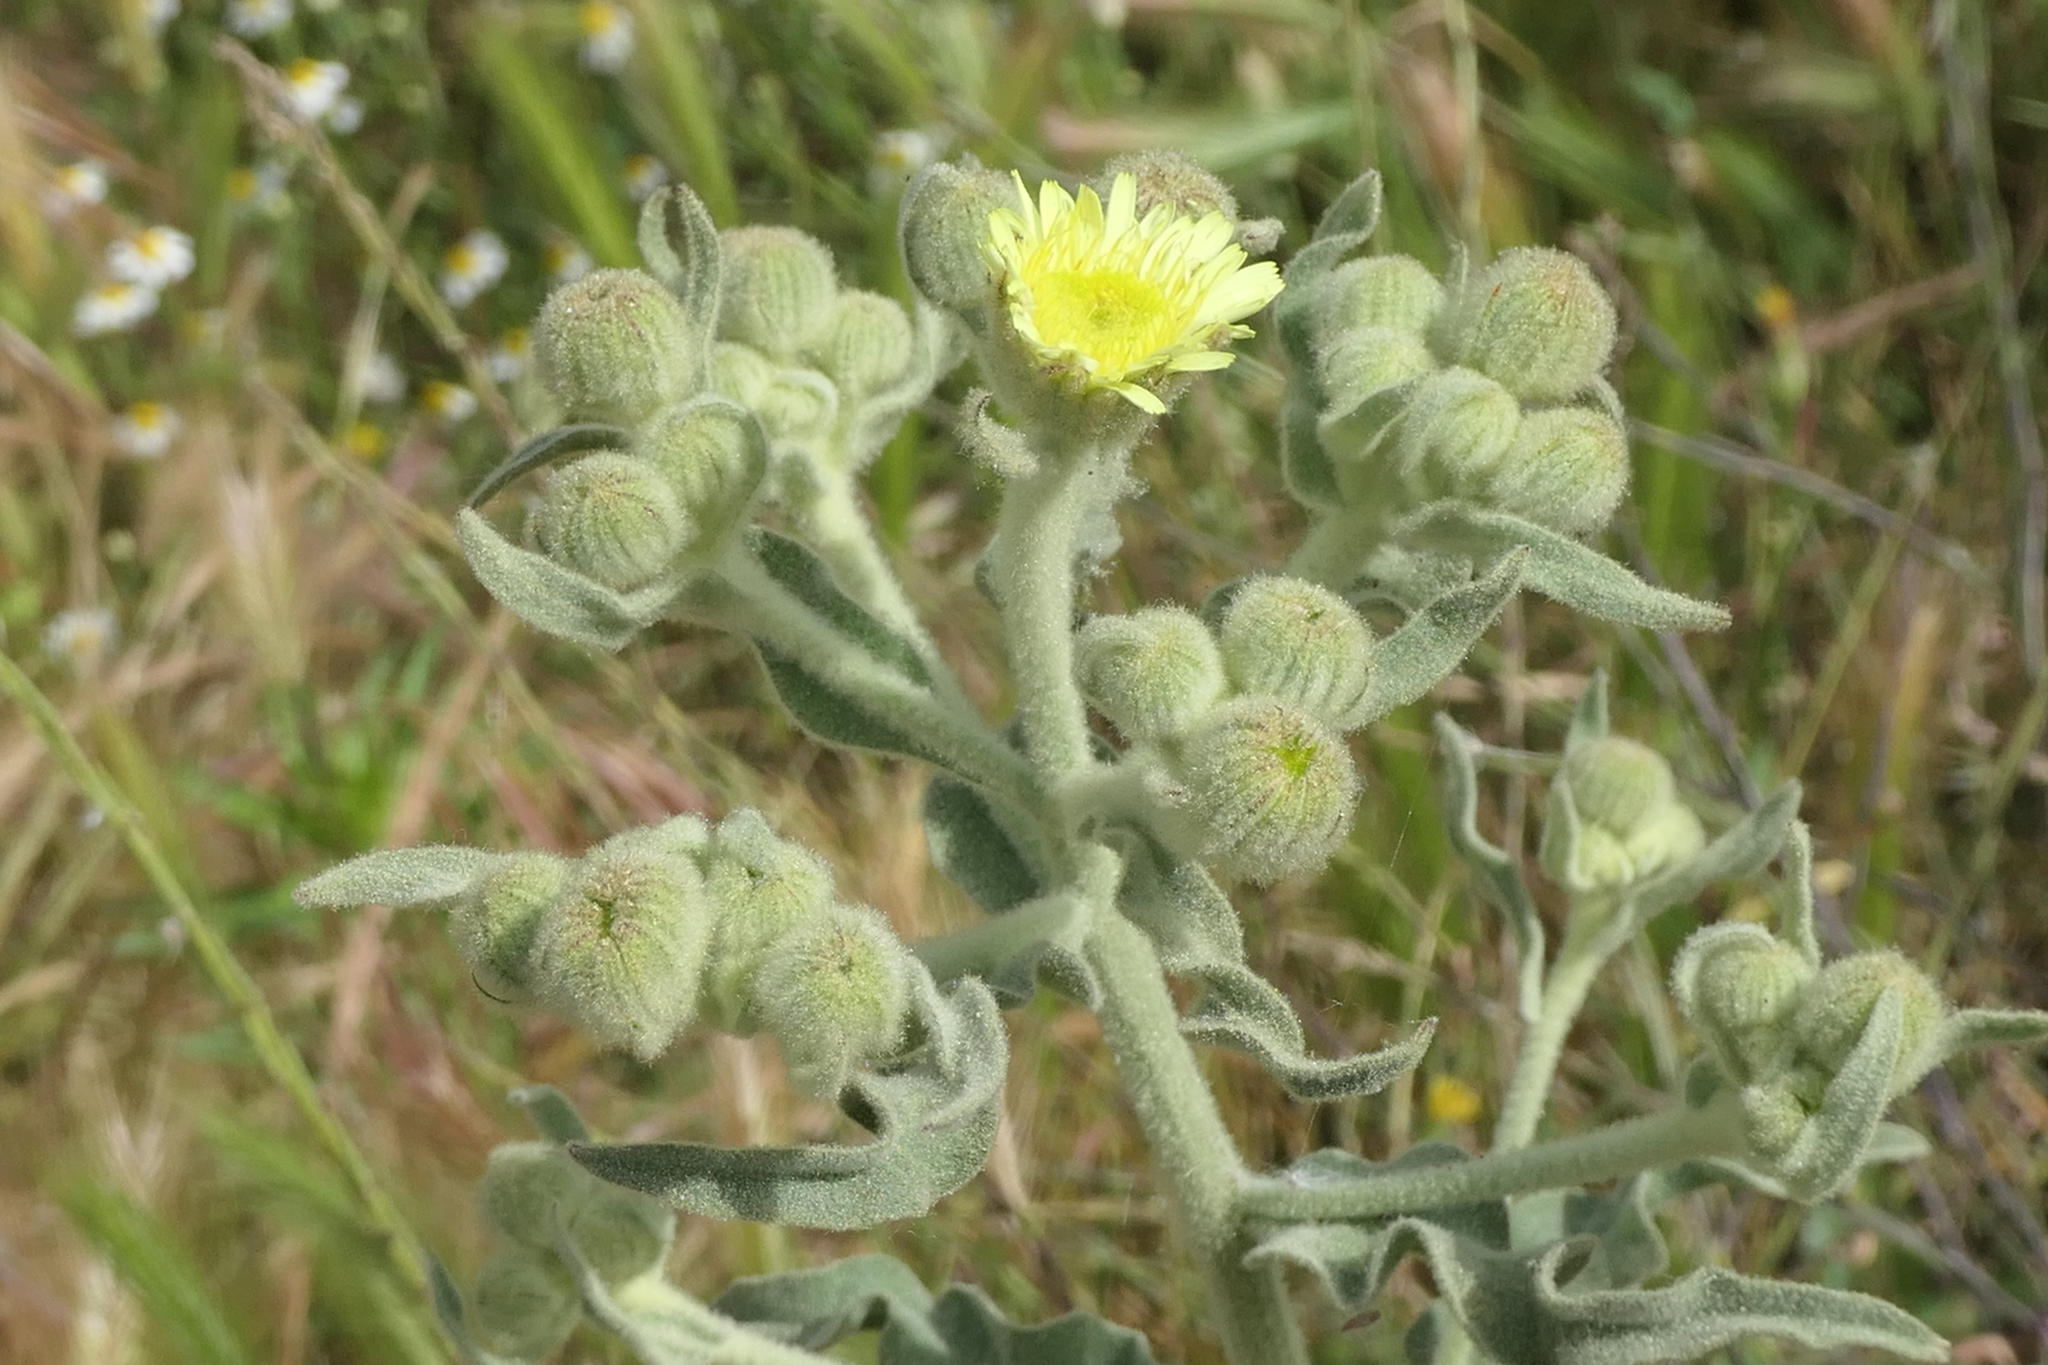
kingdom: Plantae
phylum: Tracheophyta
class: Magnoliopsida
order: Asterales
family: Asteraceae
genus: Andryala
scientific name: Andryala integrifolia
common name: Common andryala
